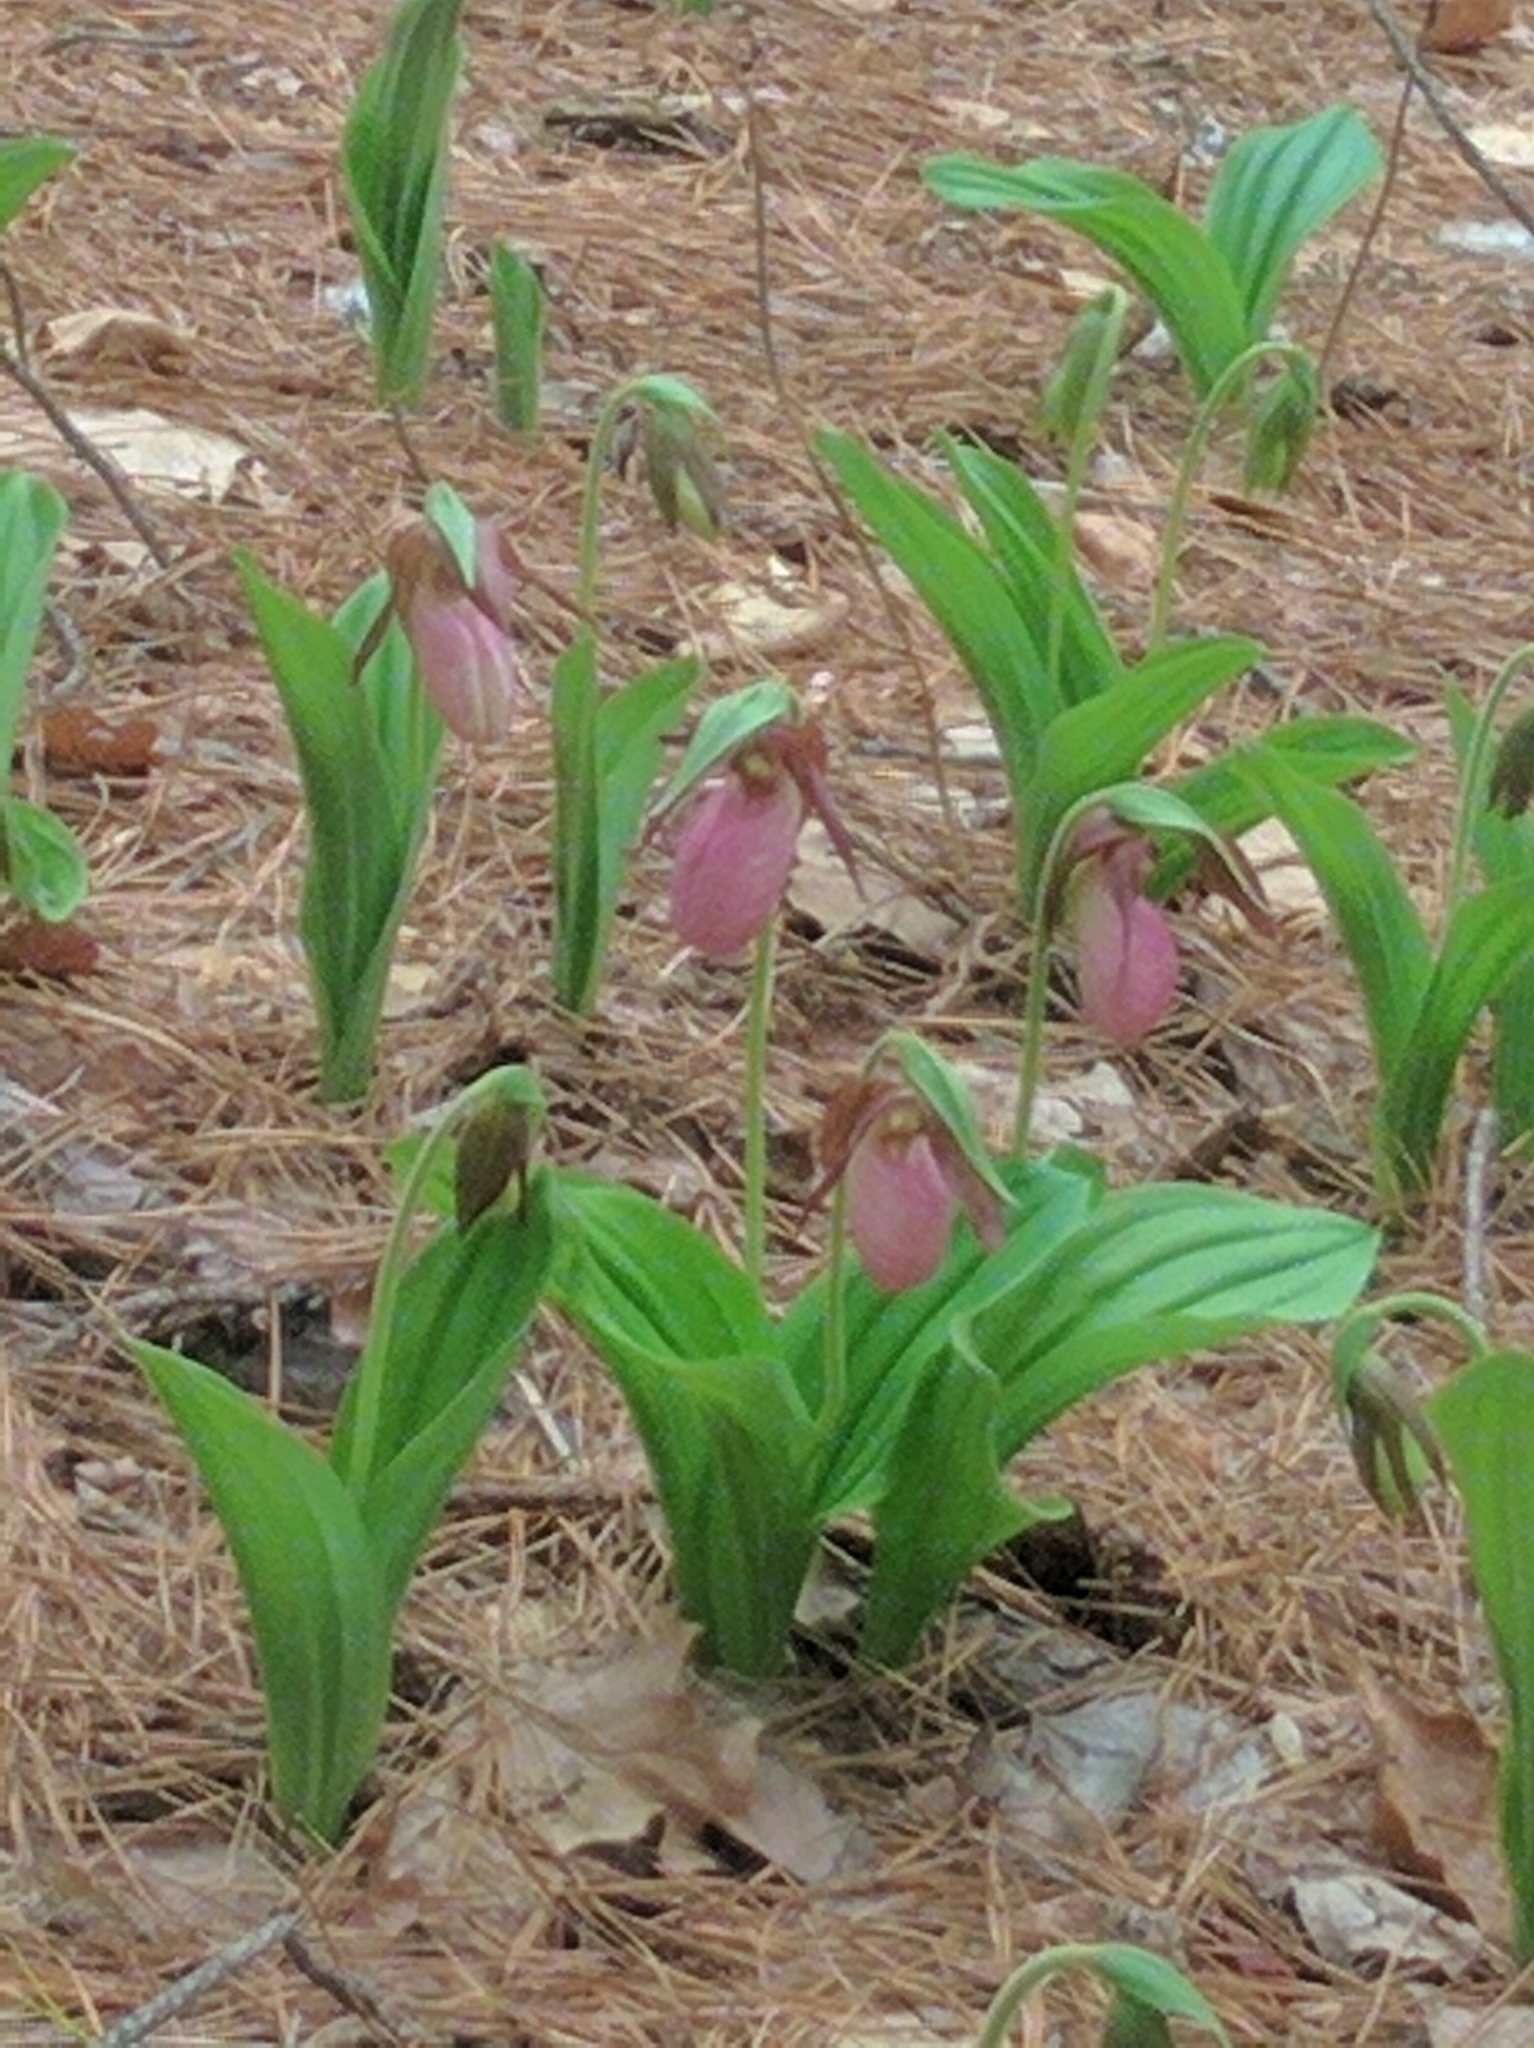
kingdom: Plantae
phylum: Tracheophyta
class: Liliopsida
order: Asparagales
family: Orchidaceae
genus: Cypripedium
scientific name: Cypripedium acaule
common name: Pink lady's-slipper
